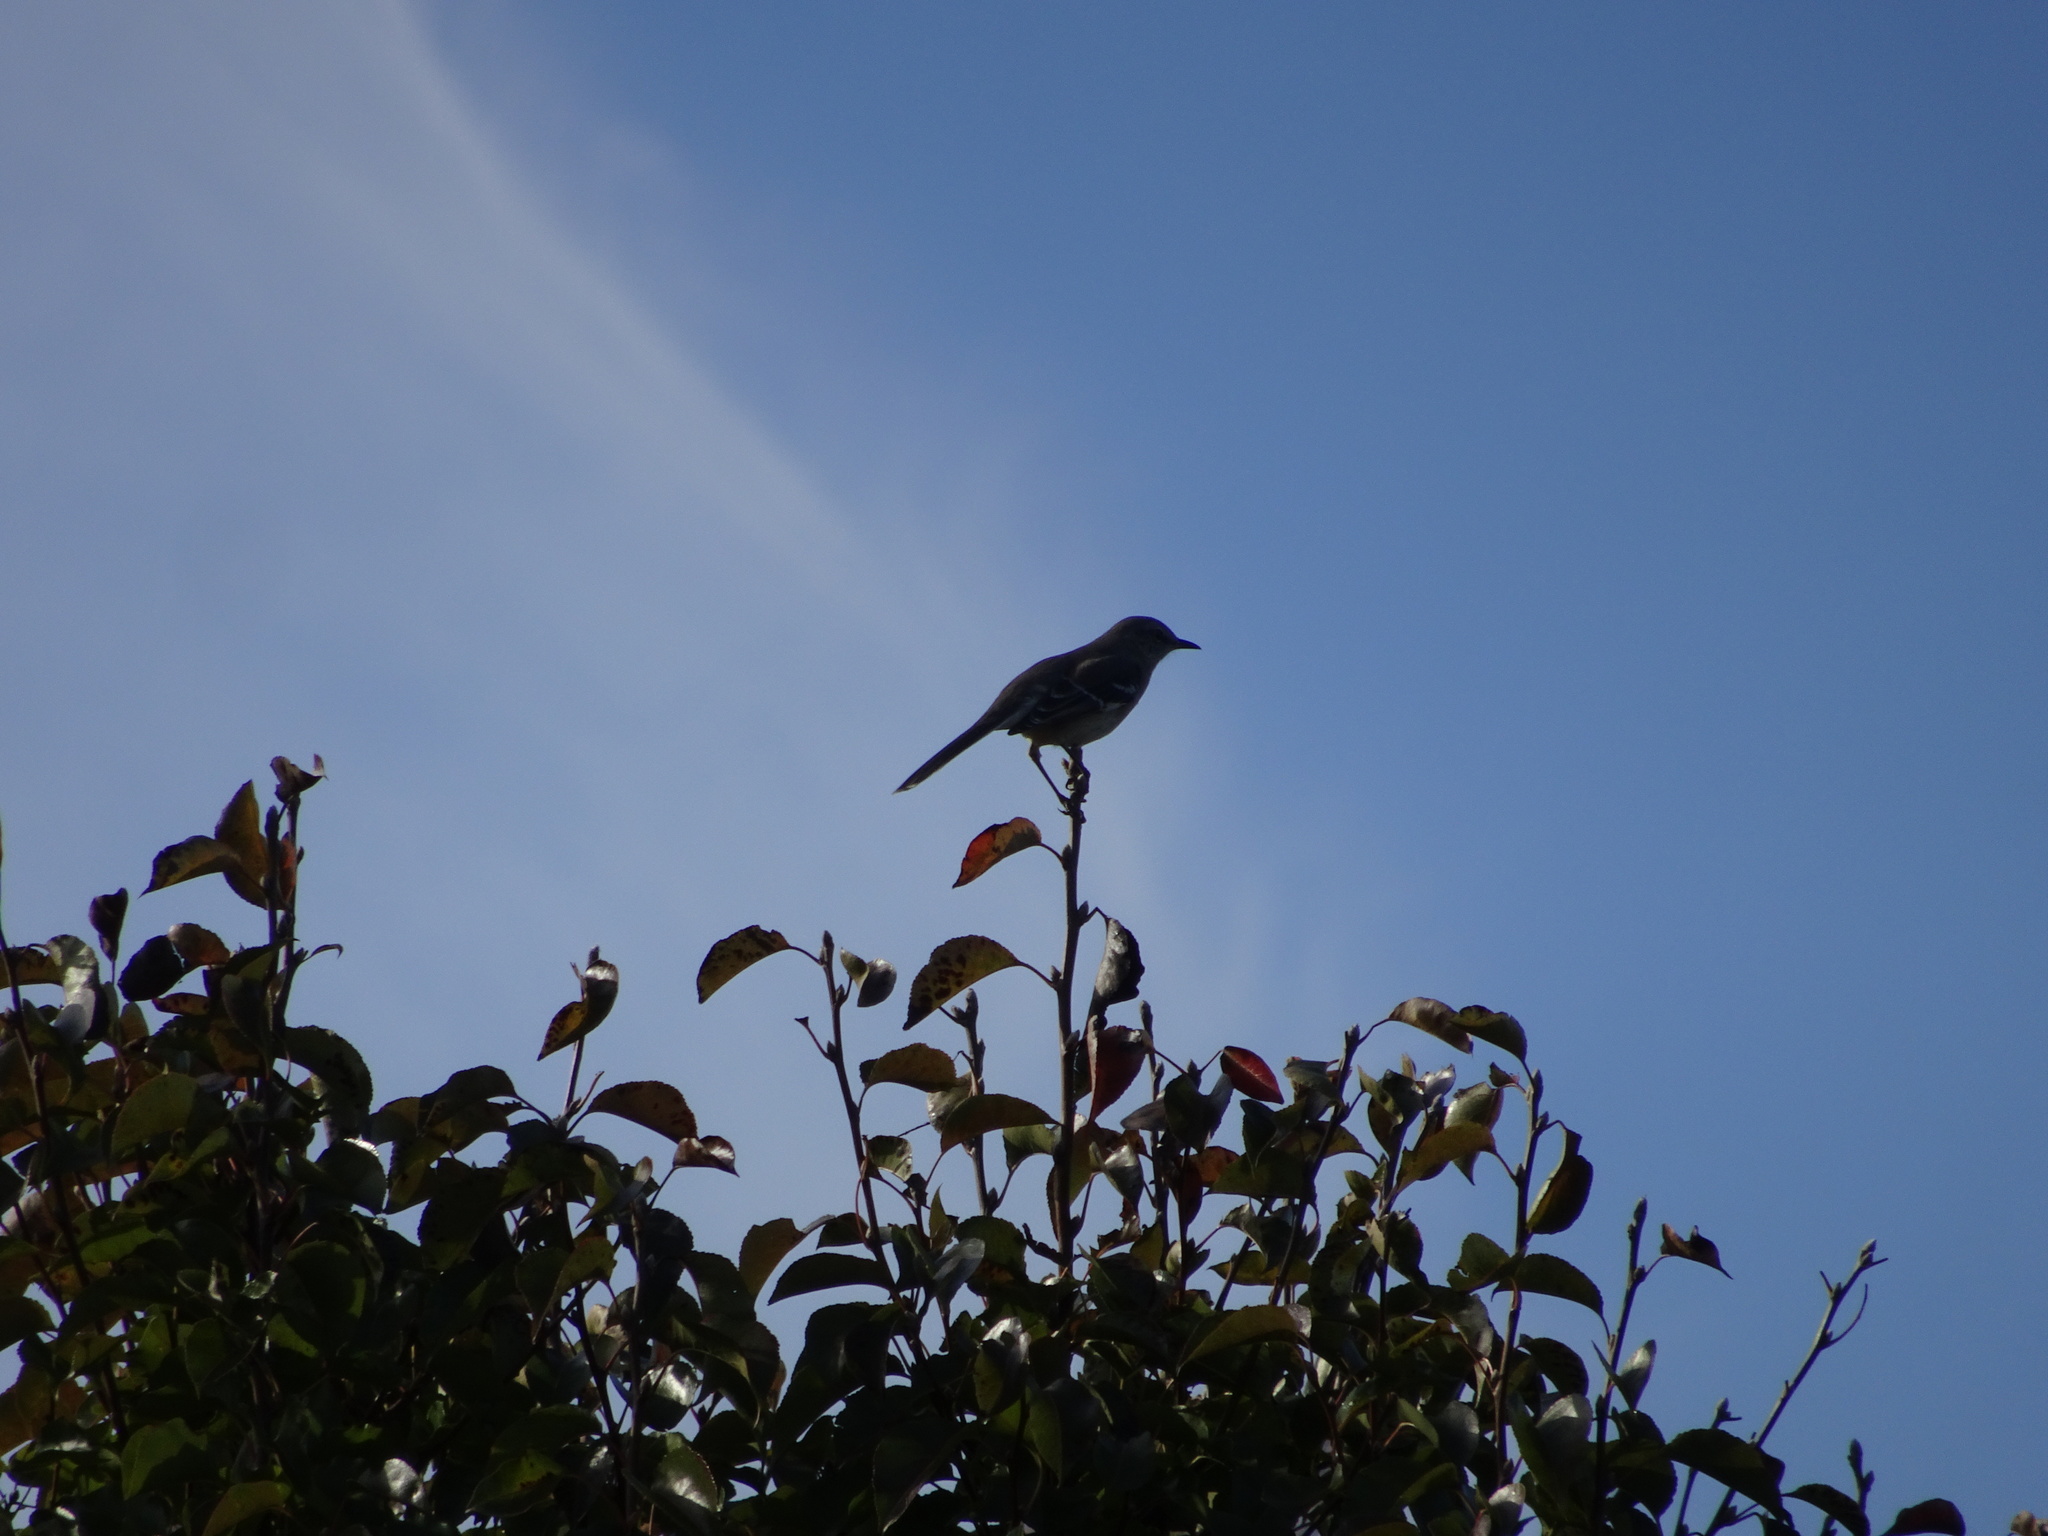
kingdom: Animalia
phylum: Chordata
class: Aves
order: Passeriformes
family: Mimidae
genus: Mimus
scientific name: Mimus polyglottos
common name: Northern mockingbird
